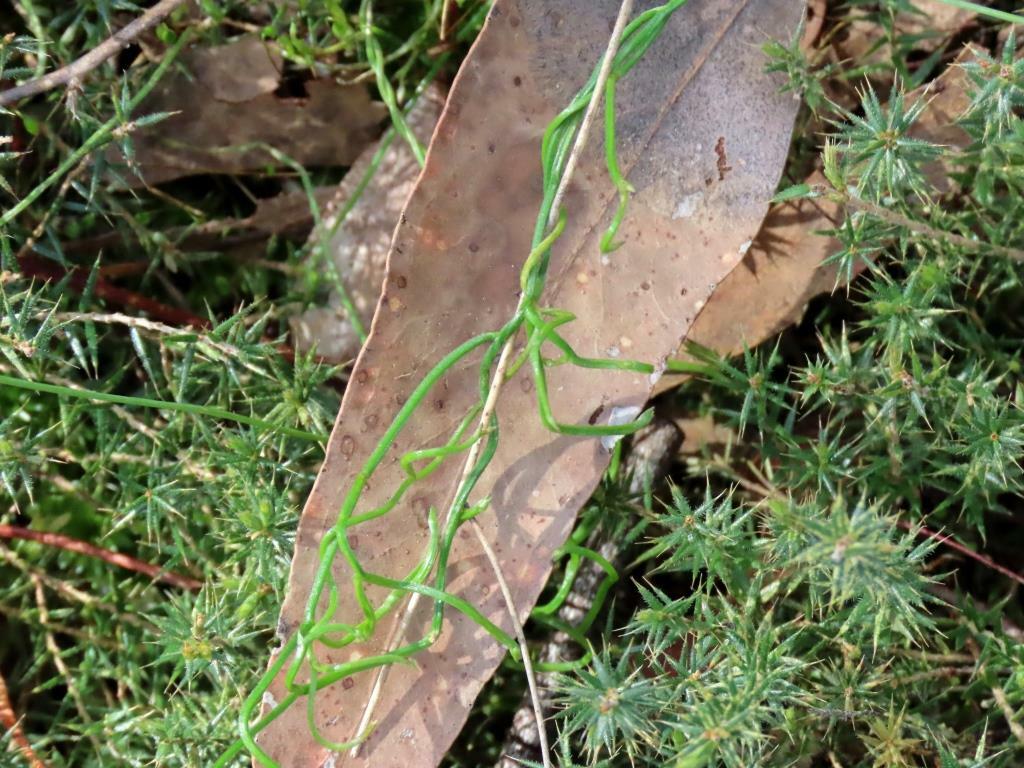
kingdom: Plantae
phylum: Tracheophyta
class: Liliopsida
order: Asparagales
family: Asparagaceae
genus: Thysanotus
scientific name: Thysanotus patersonii
